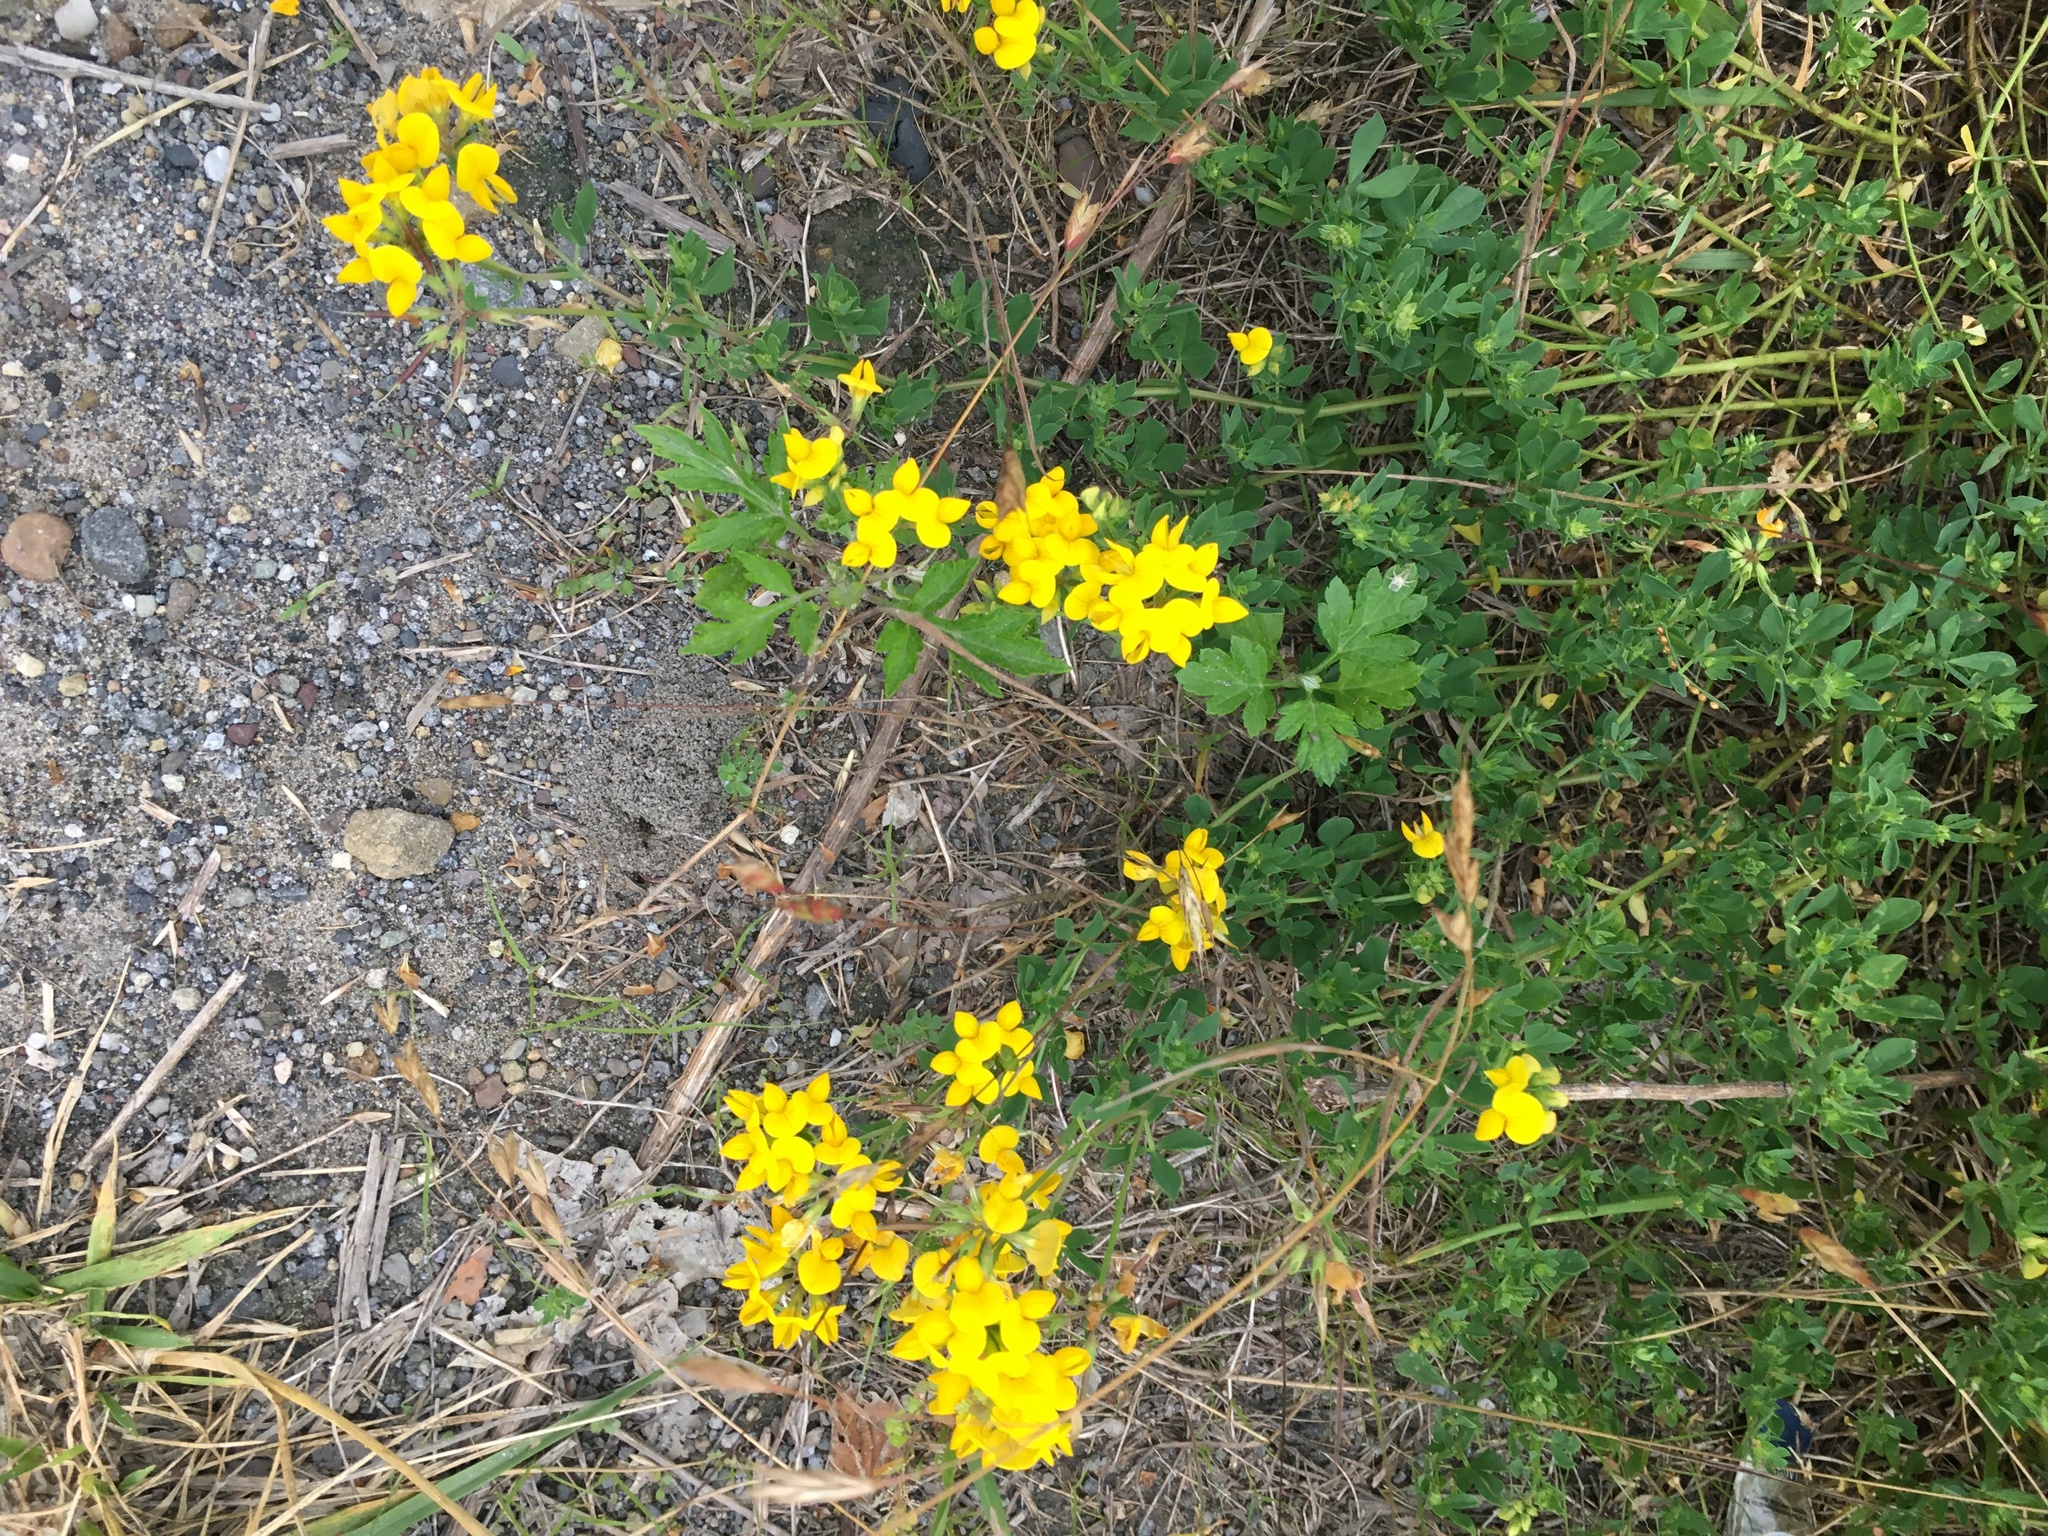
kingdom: Plantae
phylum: Tracheophyta
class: Magnoliopsida
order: Fabales
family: Fabaceae
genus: Lotus
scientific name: Lotus corniculatus
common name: Common bird's-foot-trefoil
